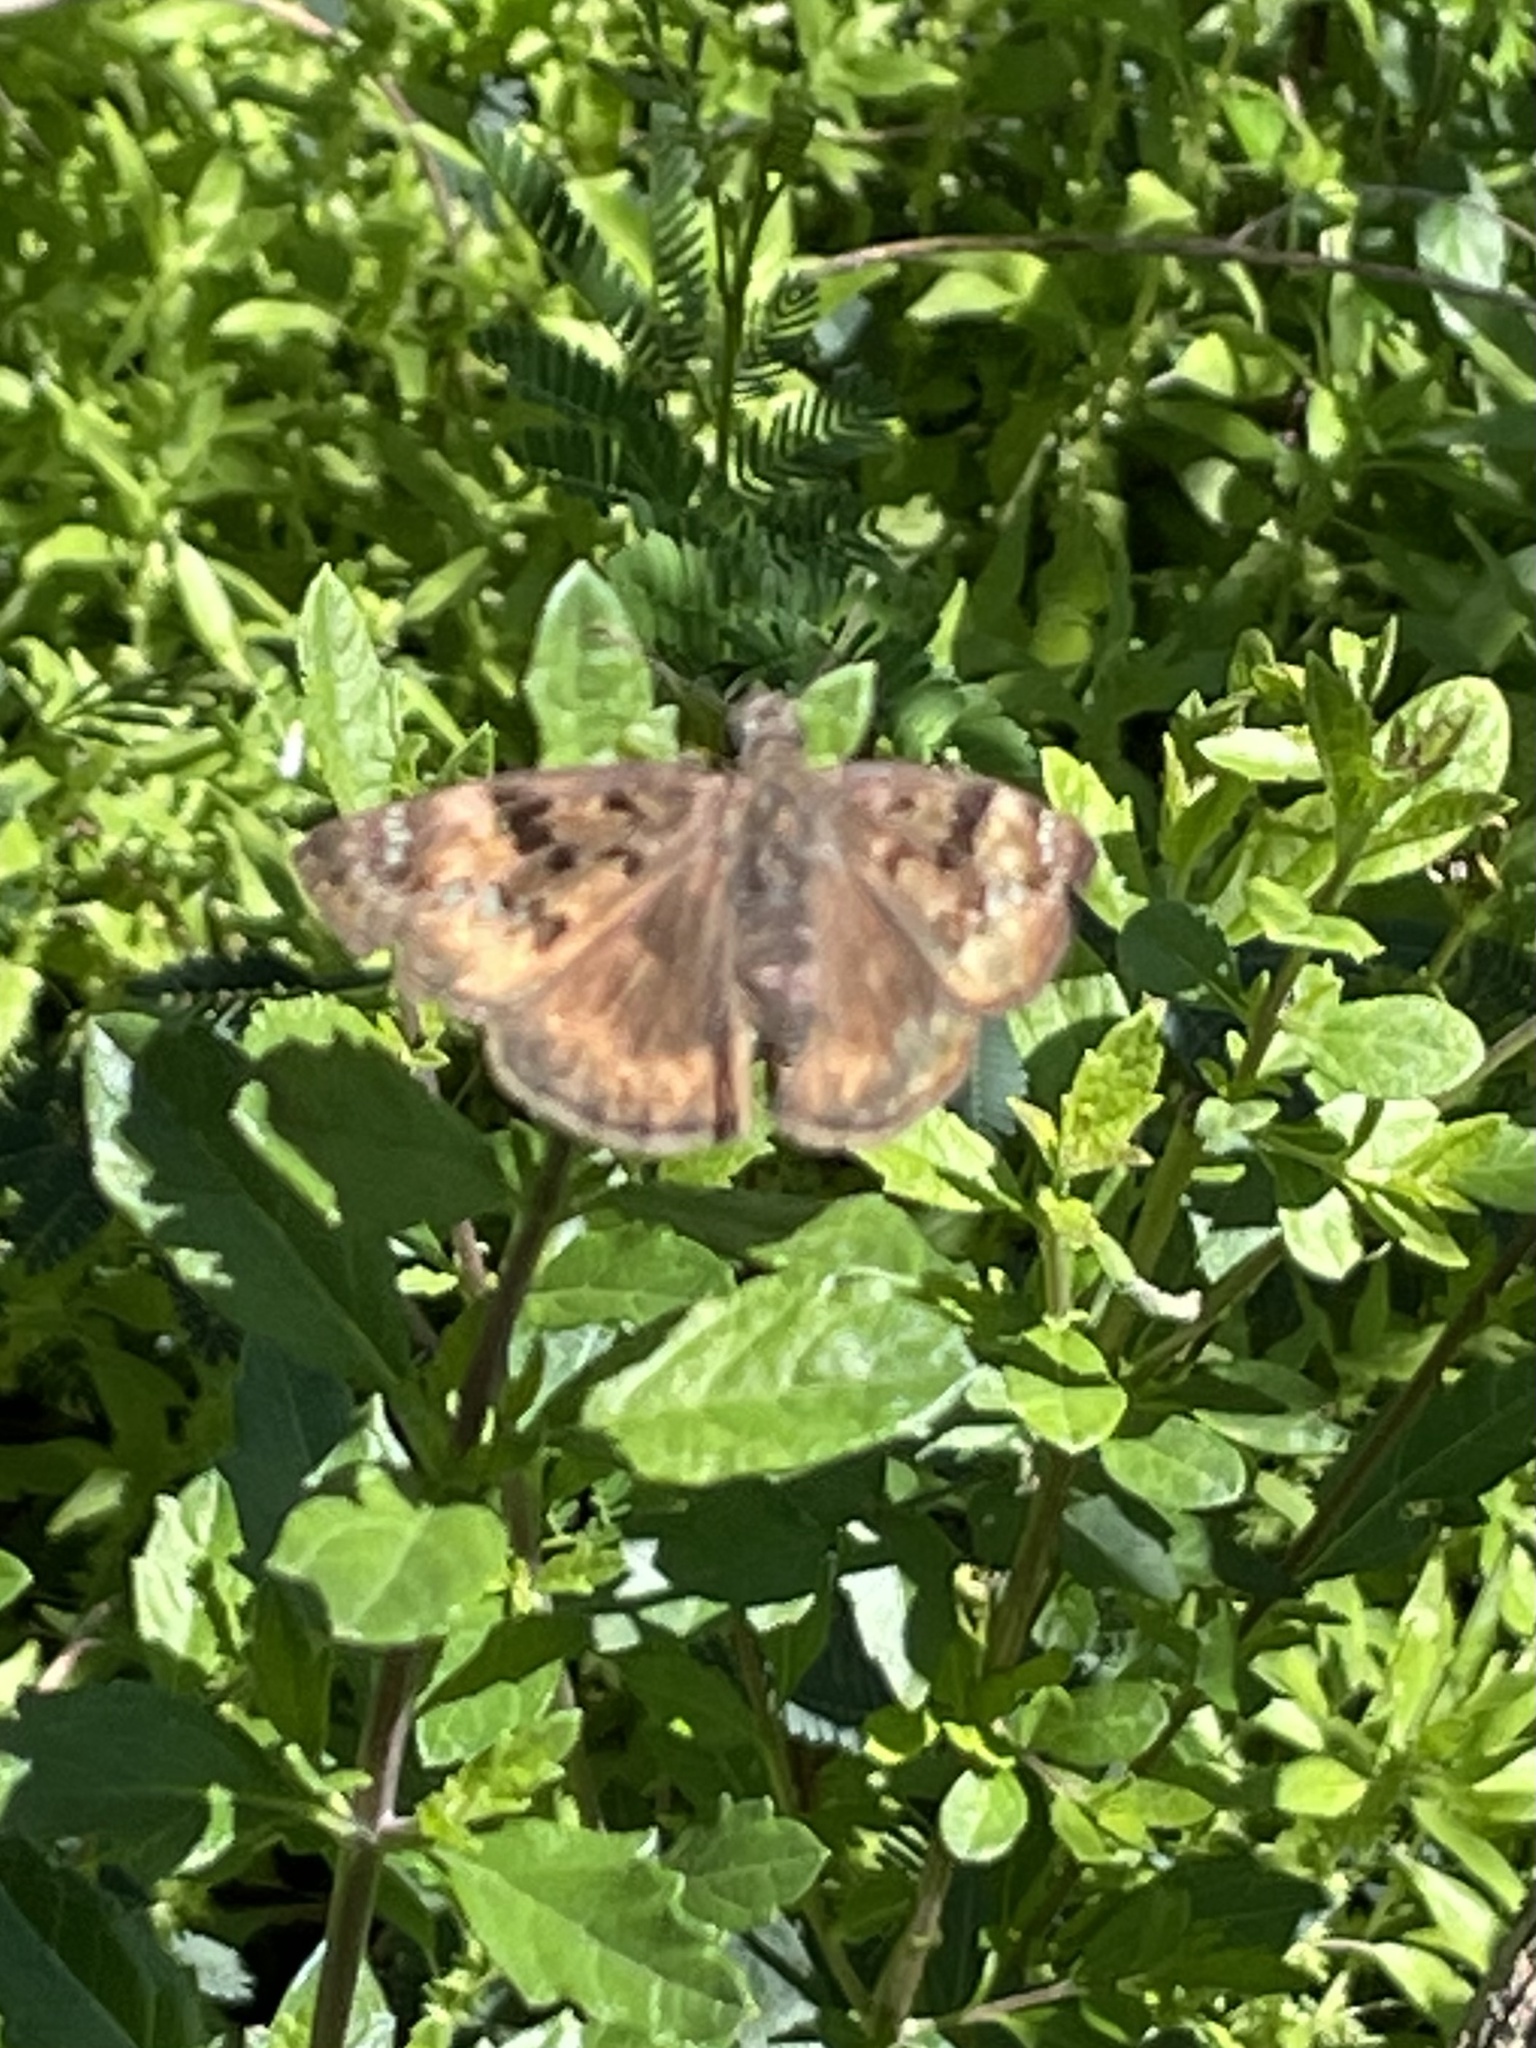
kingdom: Animalia
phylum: Arthropoda
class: Insecta
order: Lepidoptera
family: Hesperiidae
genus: Erynnis
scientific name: Erynnis horatius
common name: Horace's duskywing
